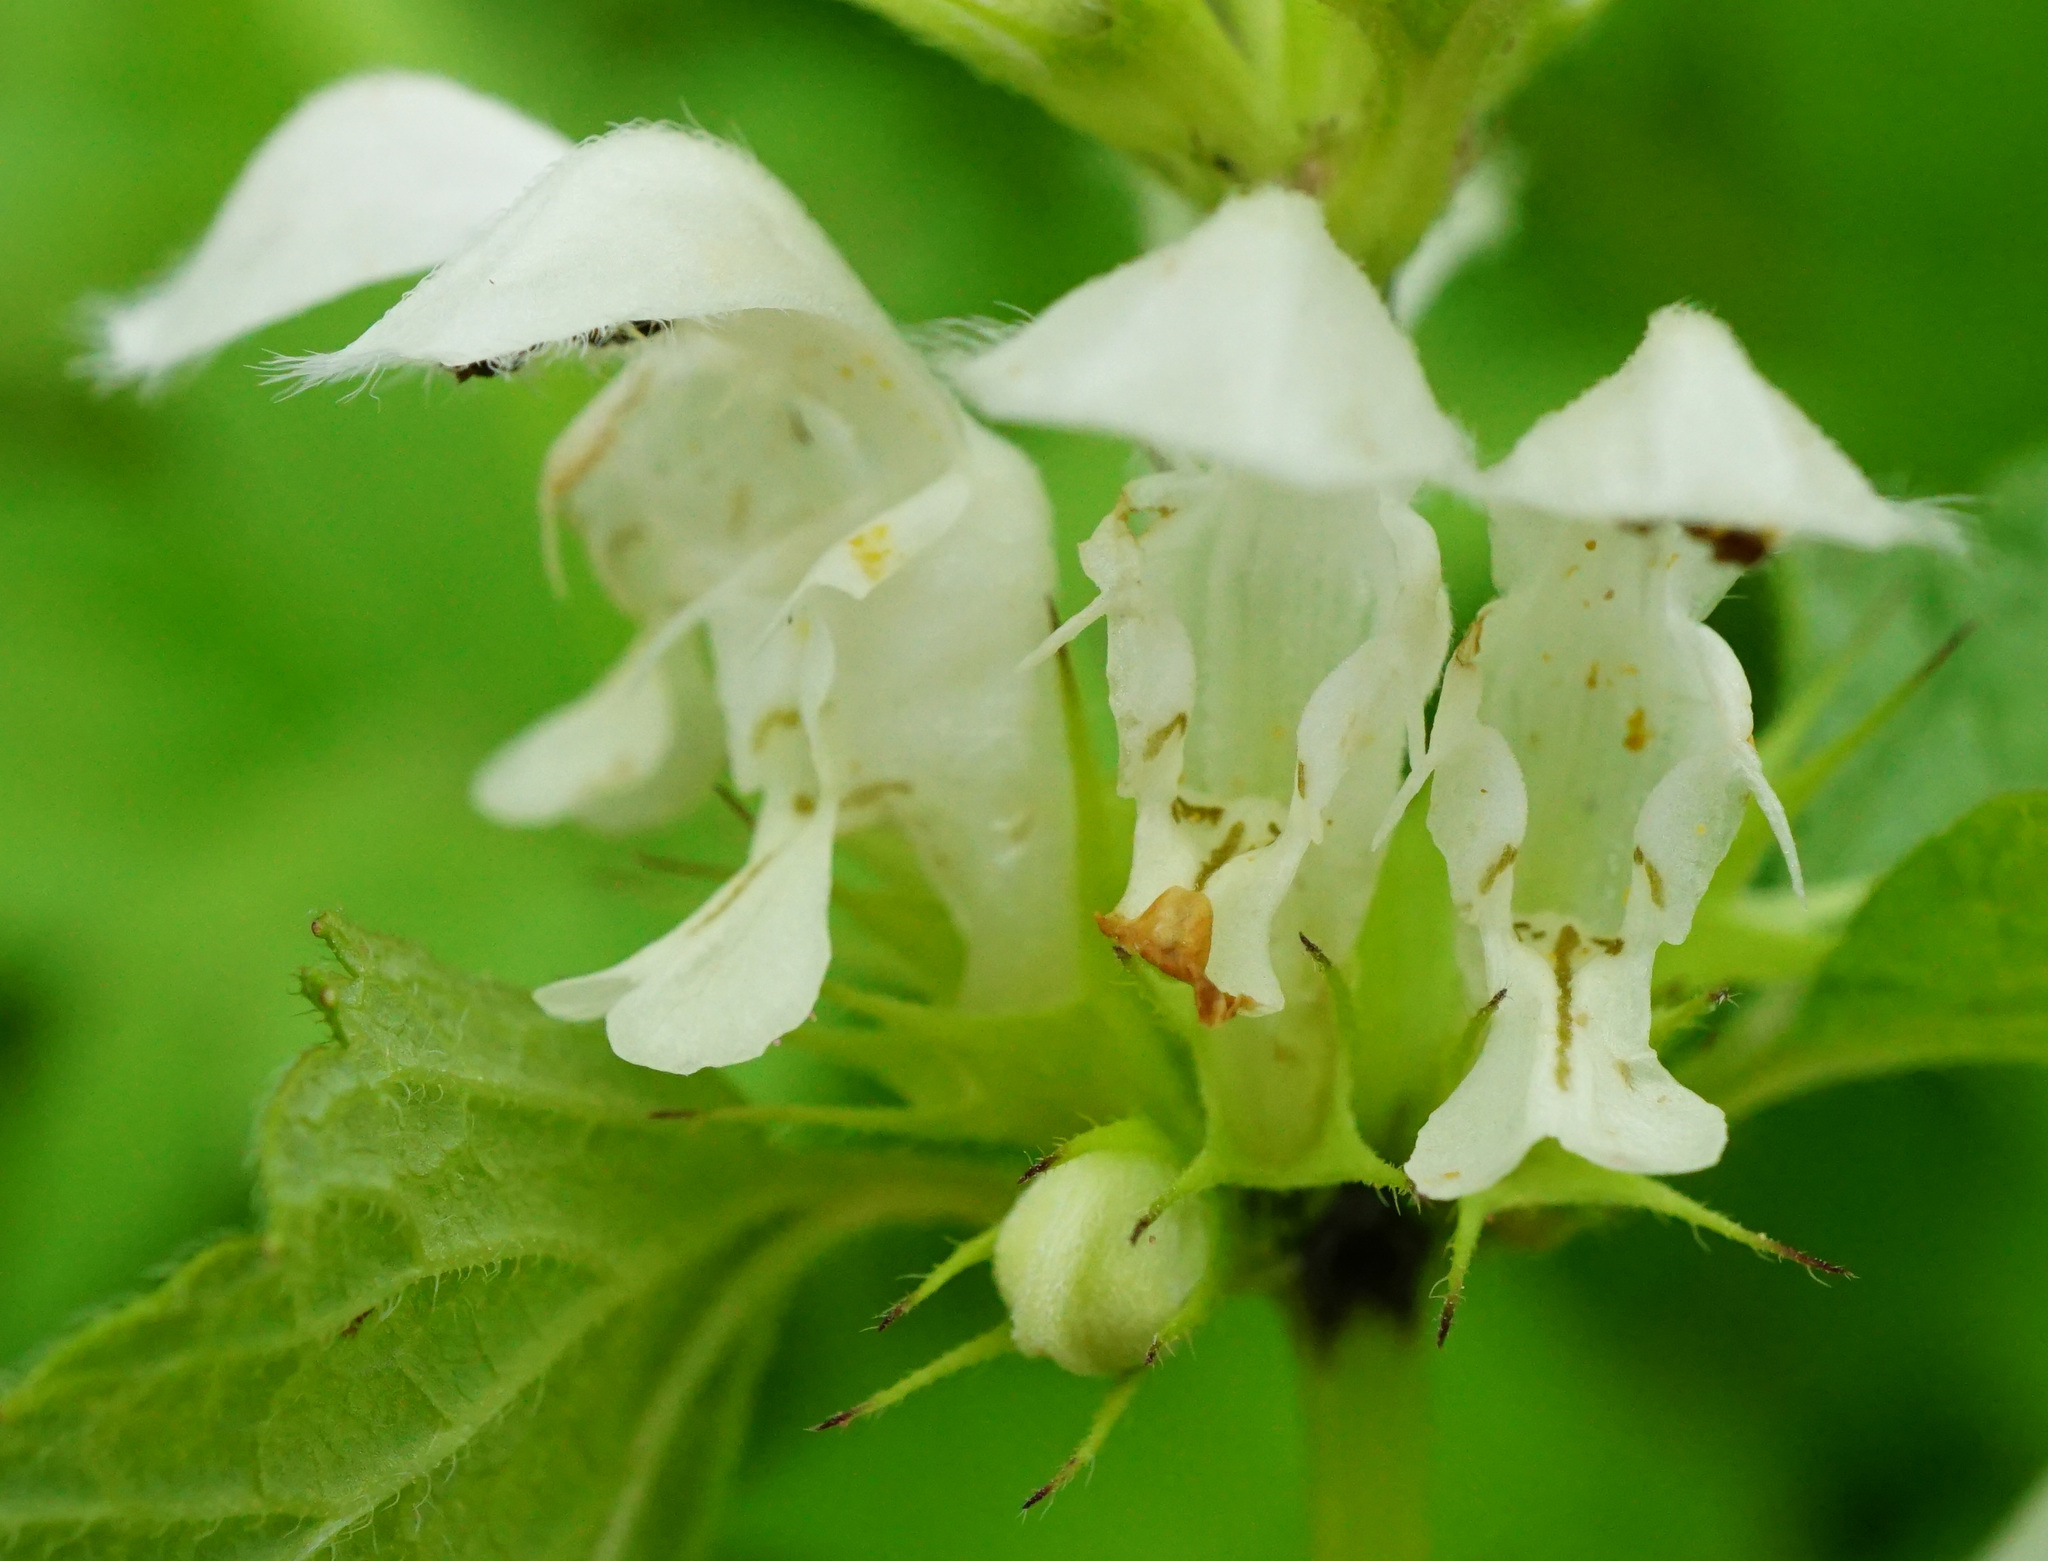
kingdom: Plantae
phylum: Tracheophyta
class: Magnoliopsida
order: Lamiales
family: Lamiaceae
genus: Lamium
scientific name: Lamium album
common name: White dead-nettle
